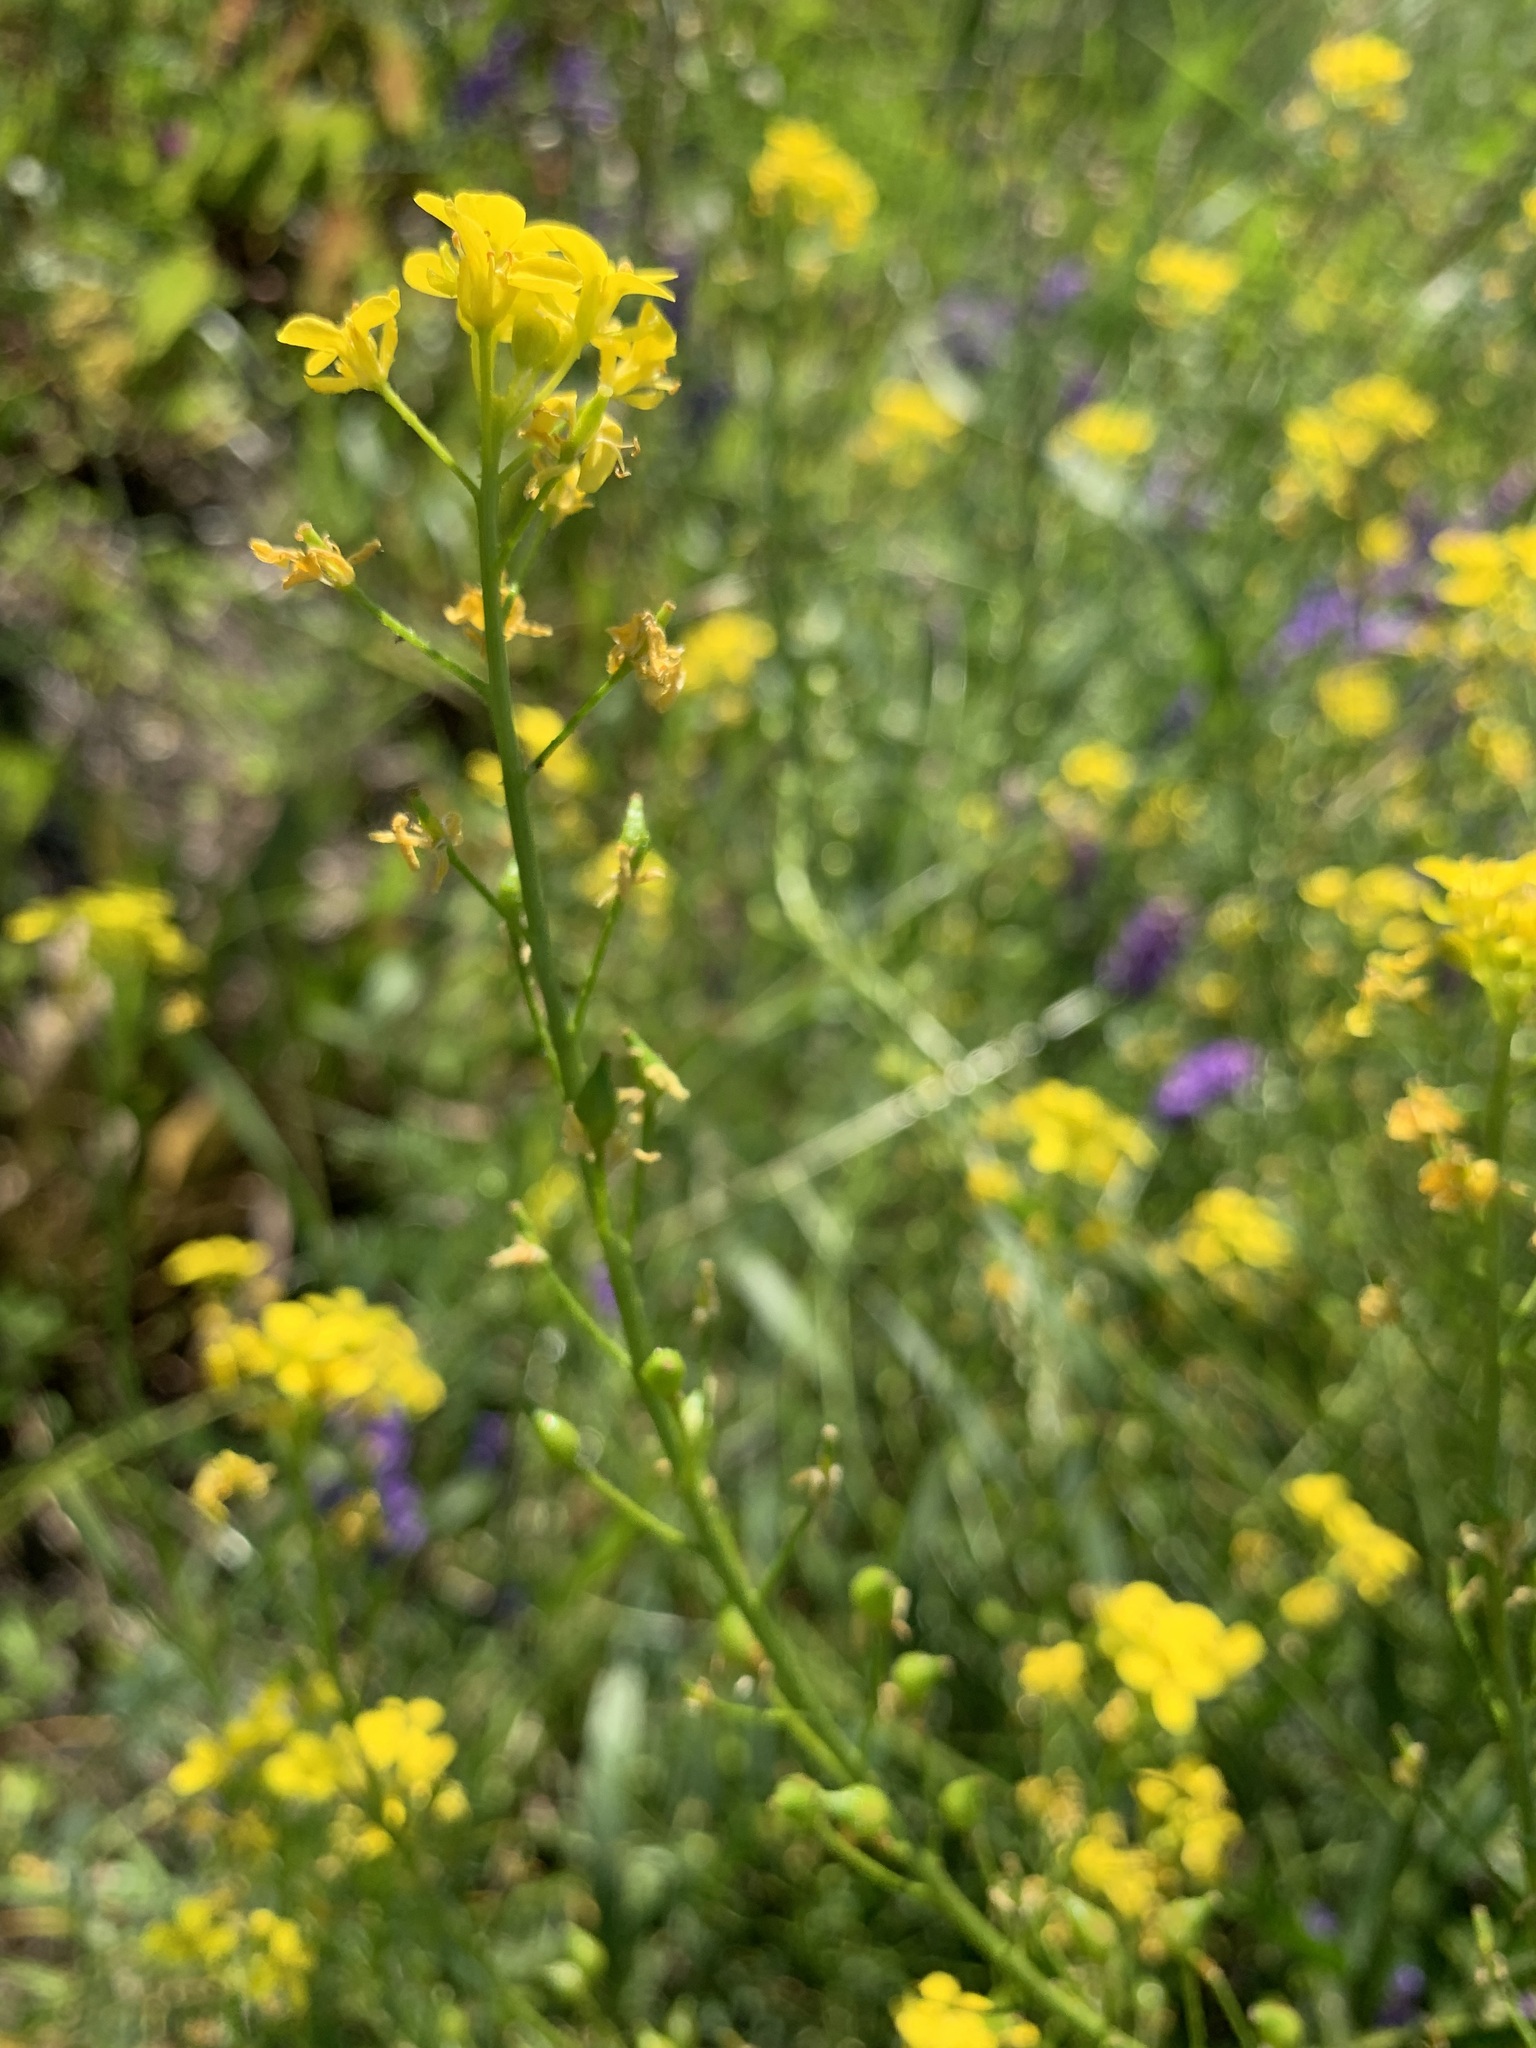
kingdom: Plantae
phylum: Tracheophyta
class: Magnoliopsida
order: Brassicales
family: Brassicaceae
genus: Bunias
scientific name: Bunias orientalis
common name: Warty-cabbage
